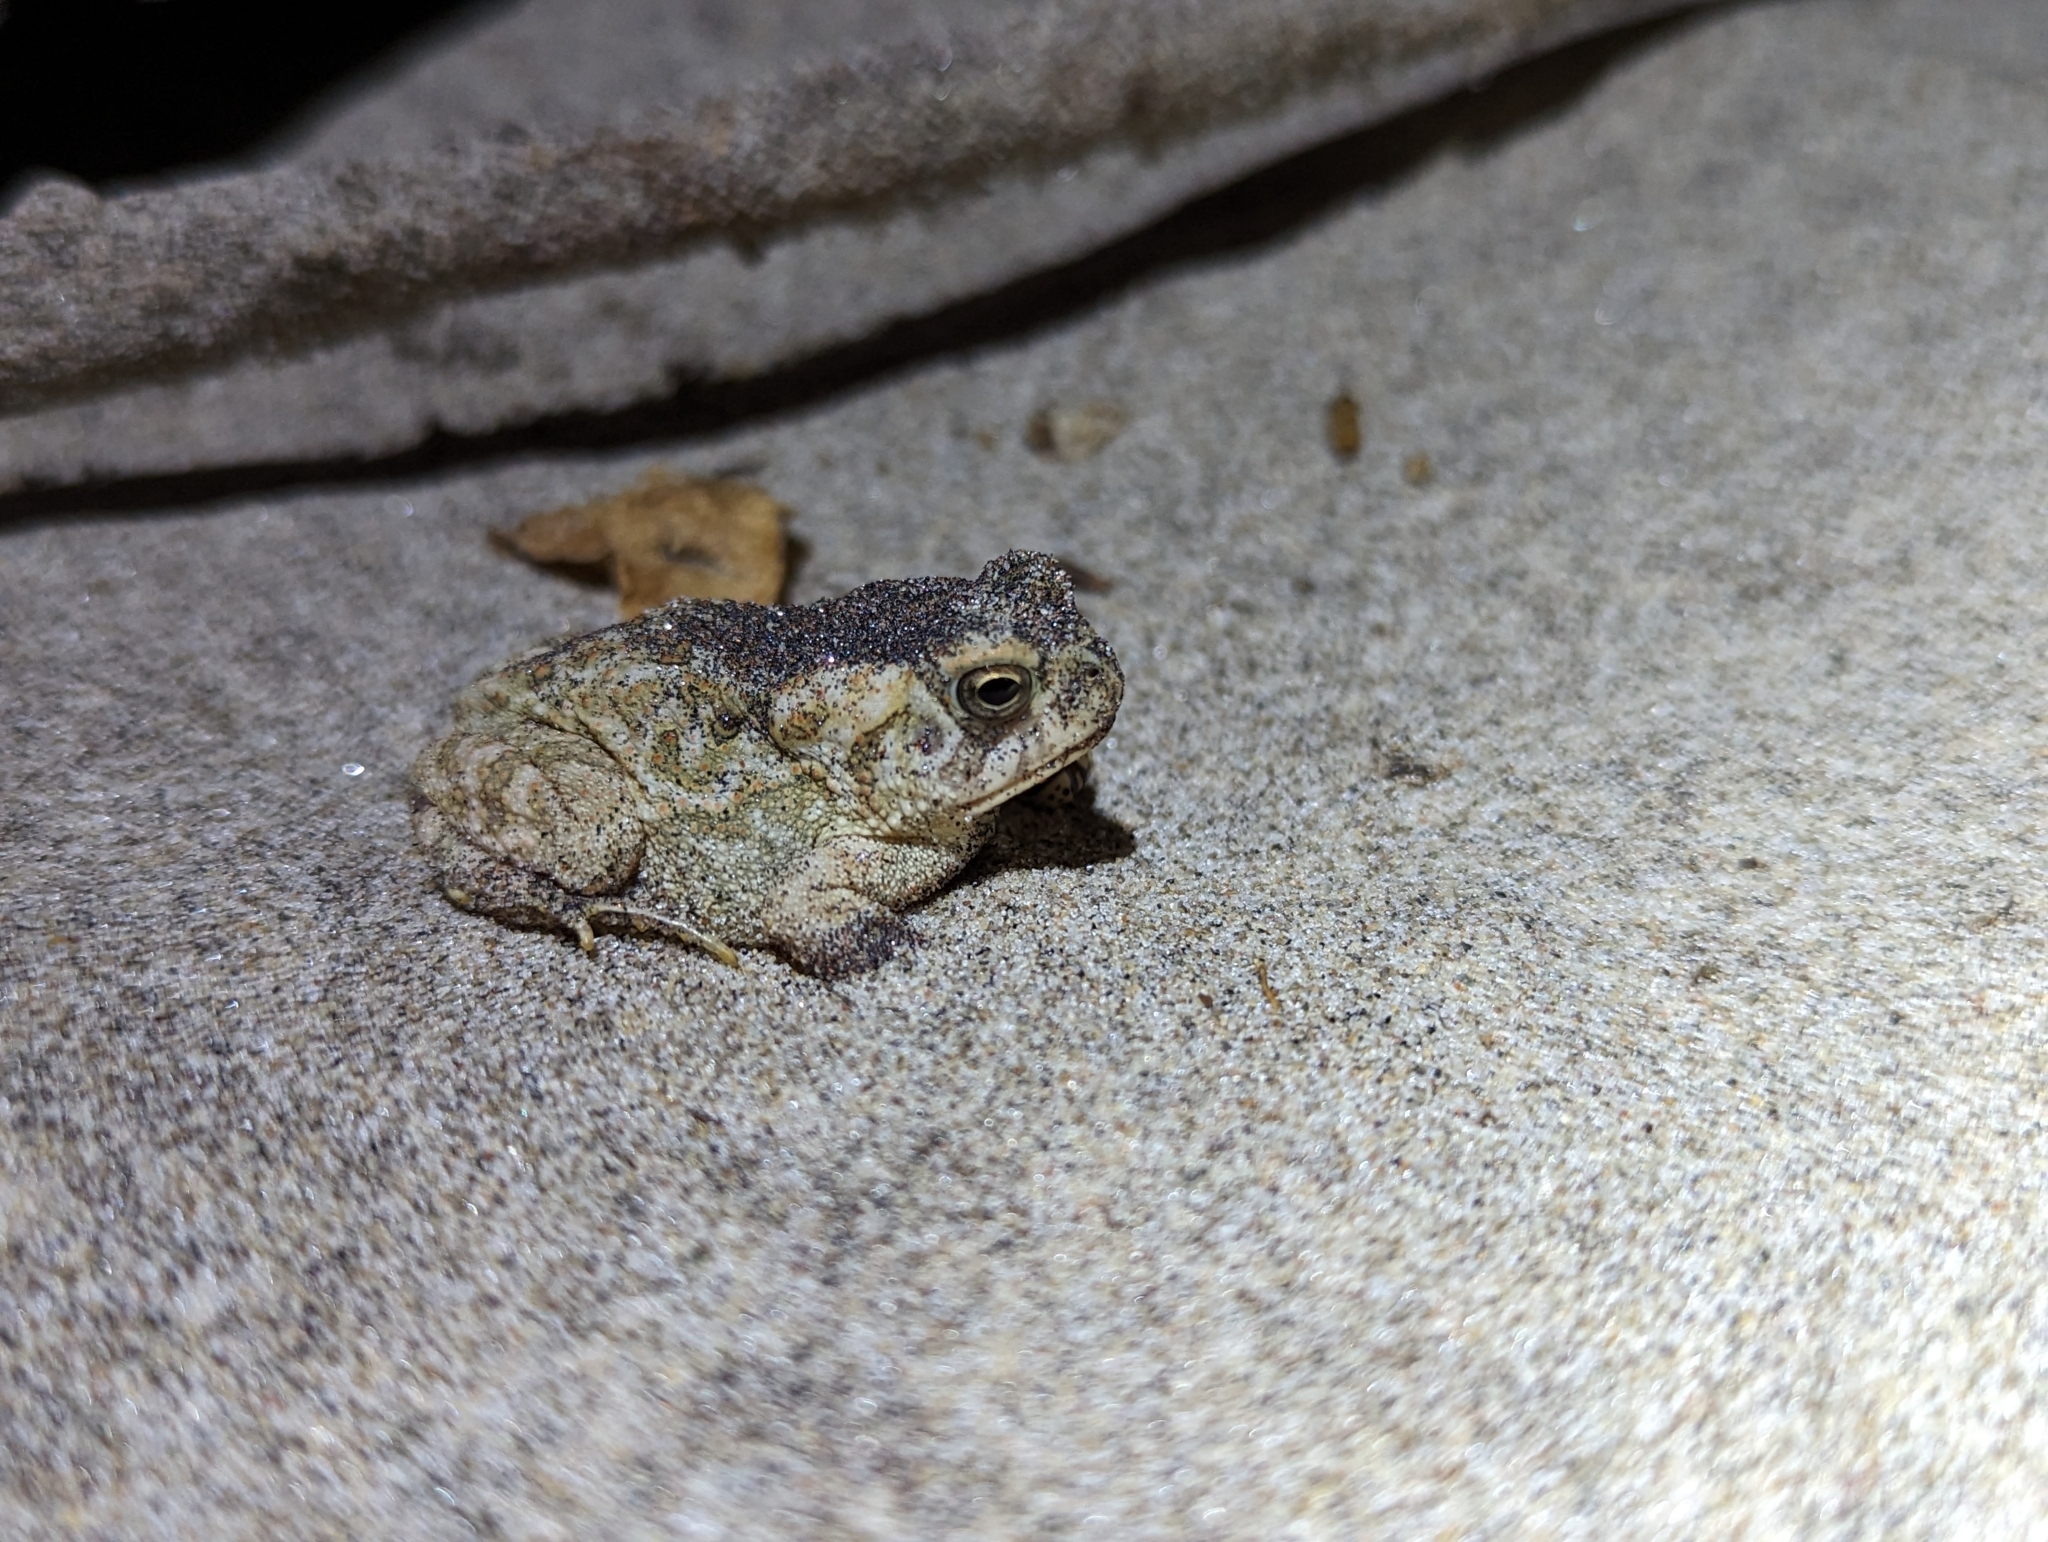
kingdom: Animalia
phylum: Chordata
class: Amphibia
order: Anura
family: Bufonidae
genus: Anaxyrus
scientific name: Anaxyrus fowleri
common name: Fowler's toad
